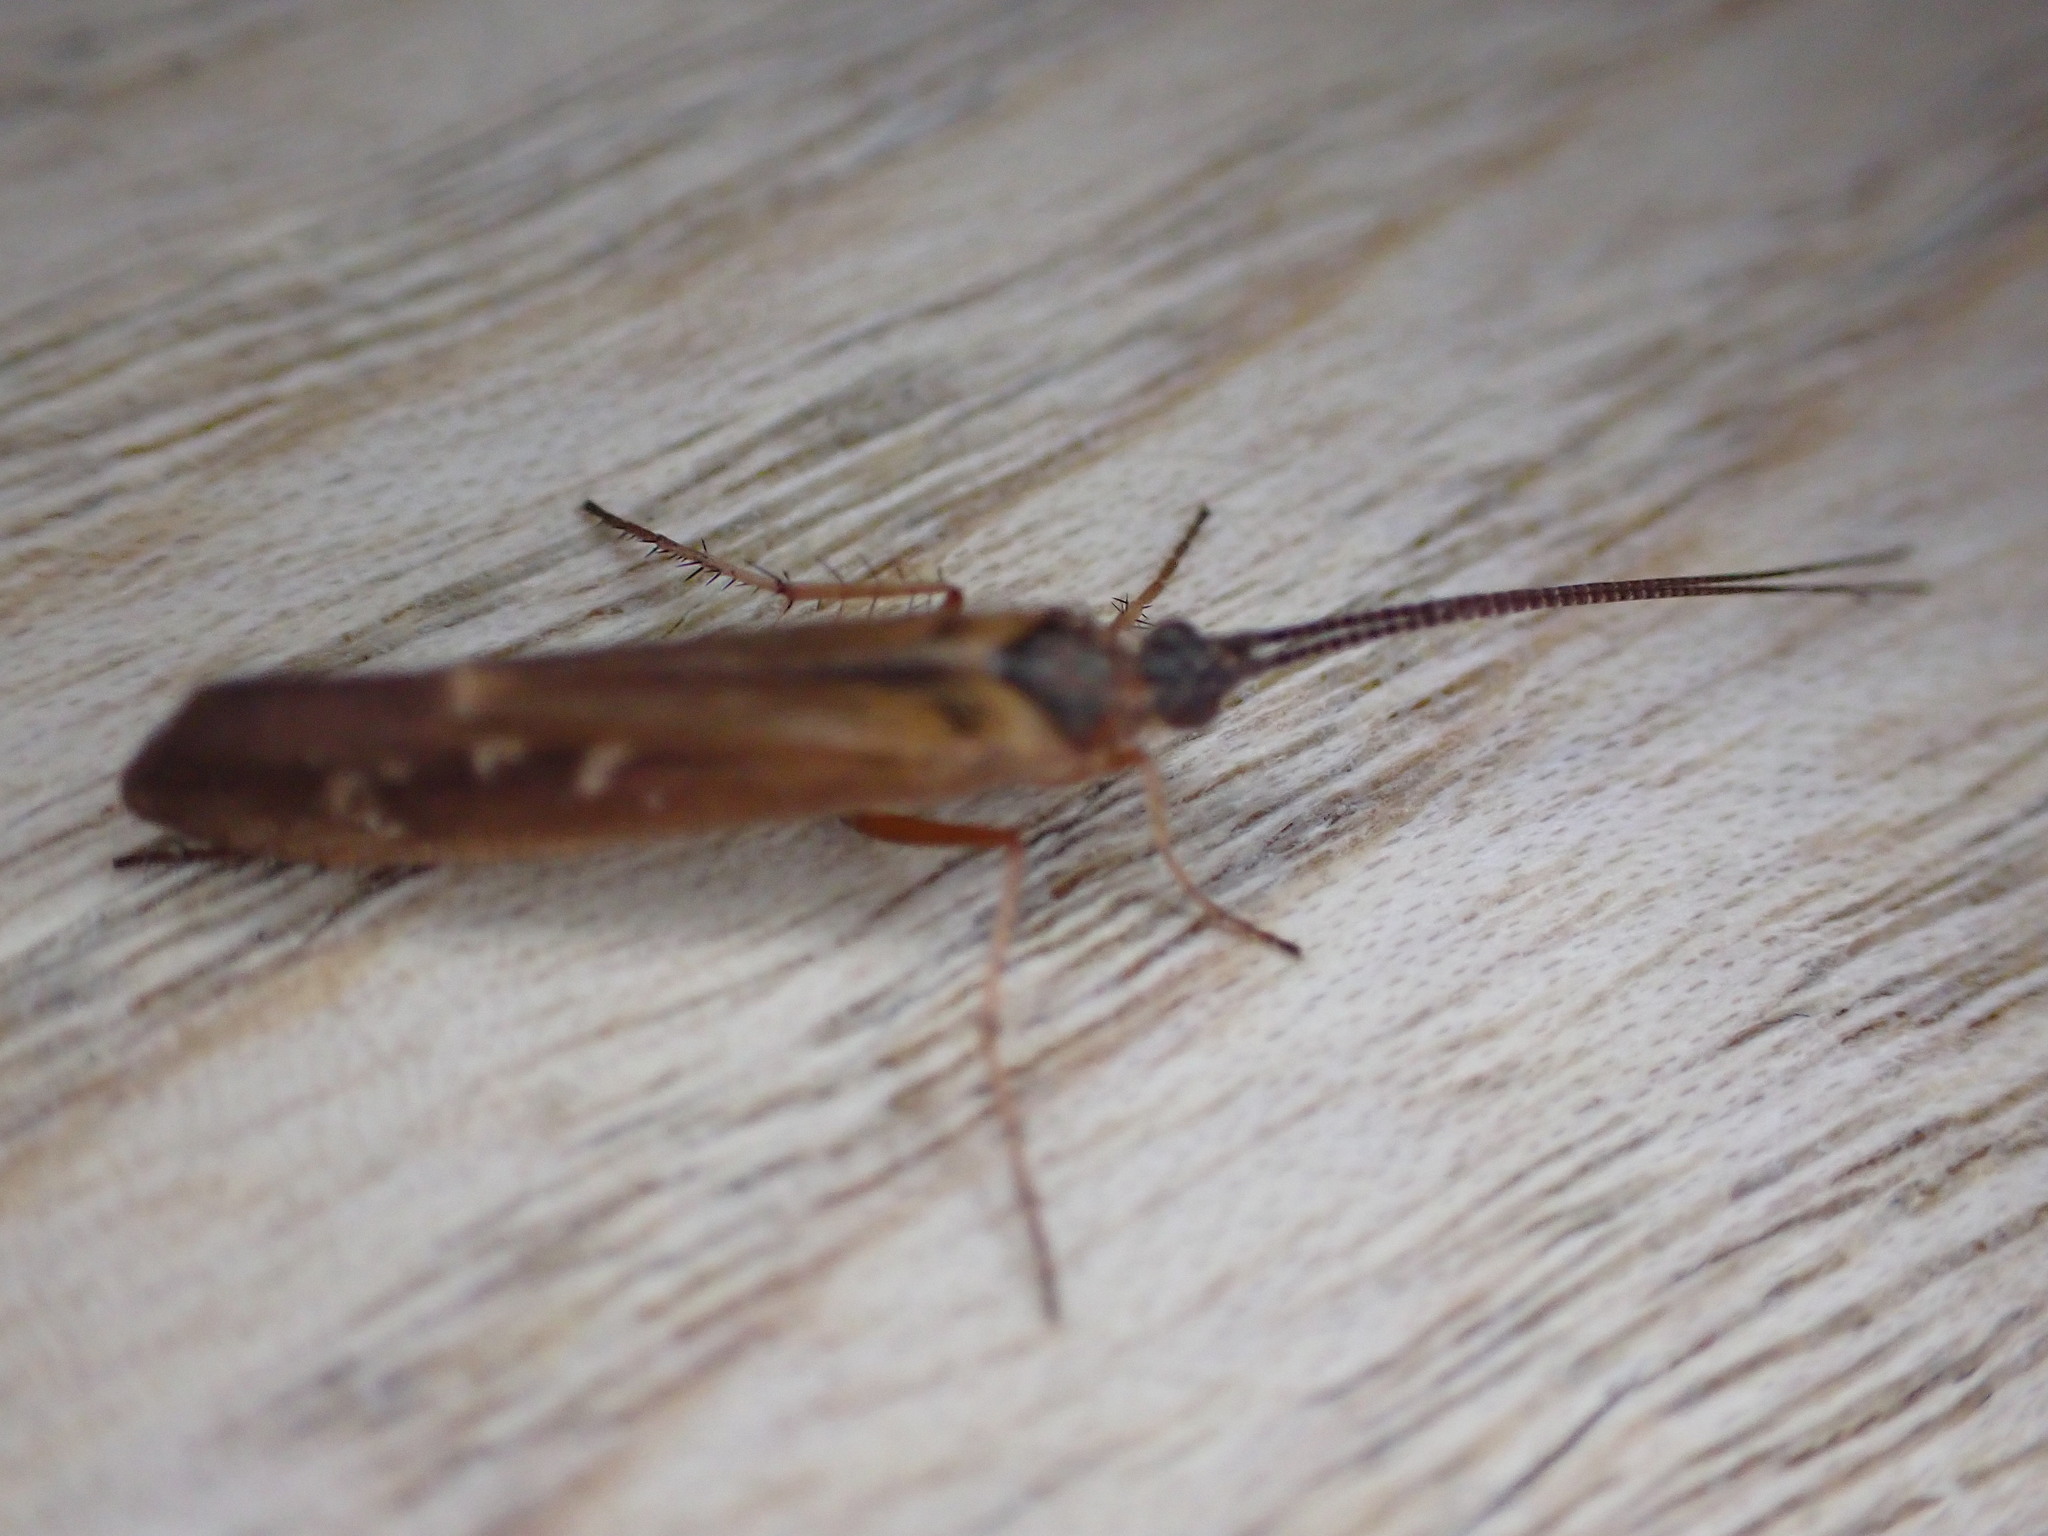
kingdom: Animalia
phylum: Arthropoda
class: Insecta
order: Trichoptera
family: Limnephilidae
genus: Limnephilus
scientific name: Limnephilus auricula
